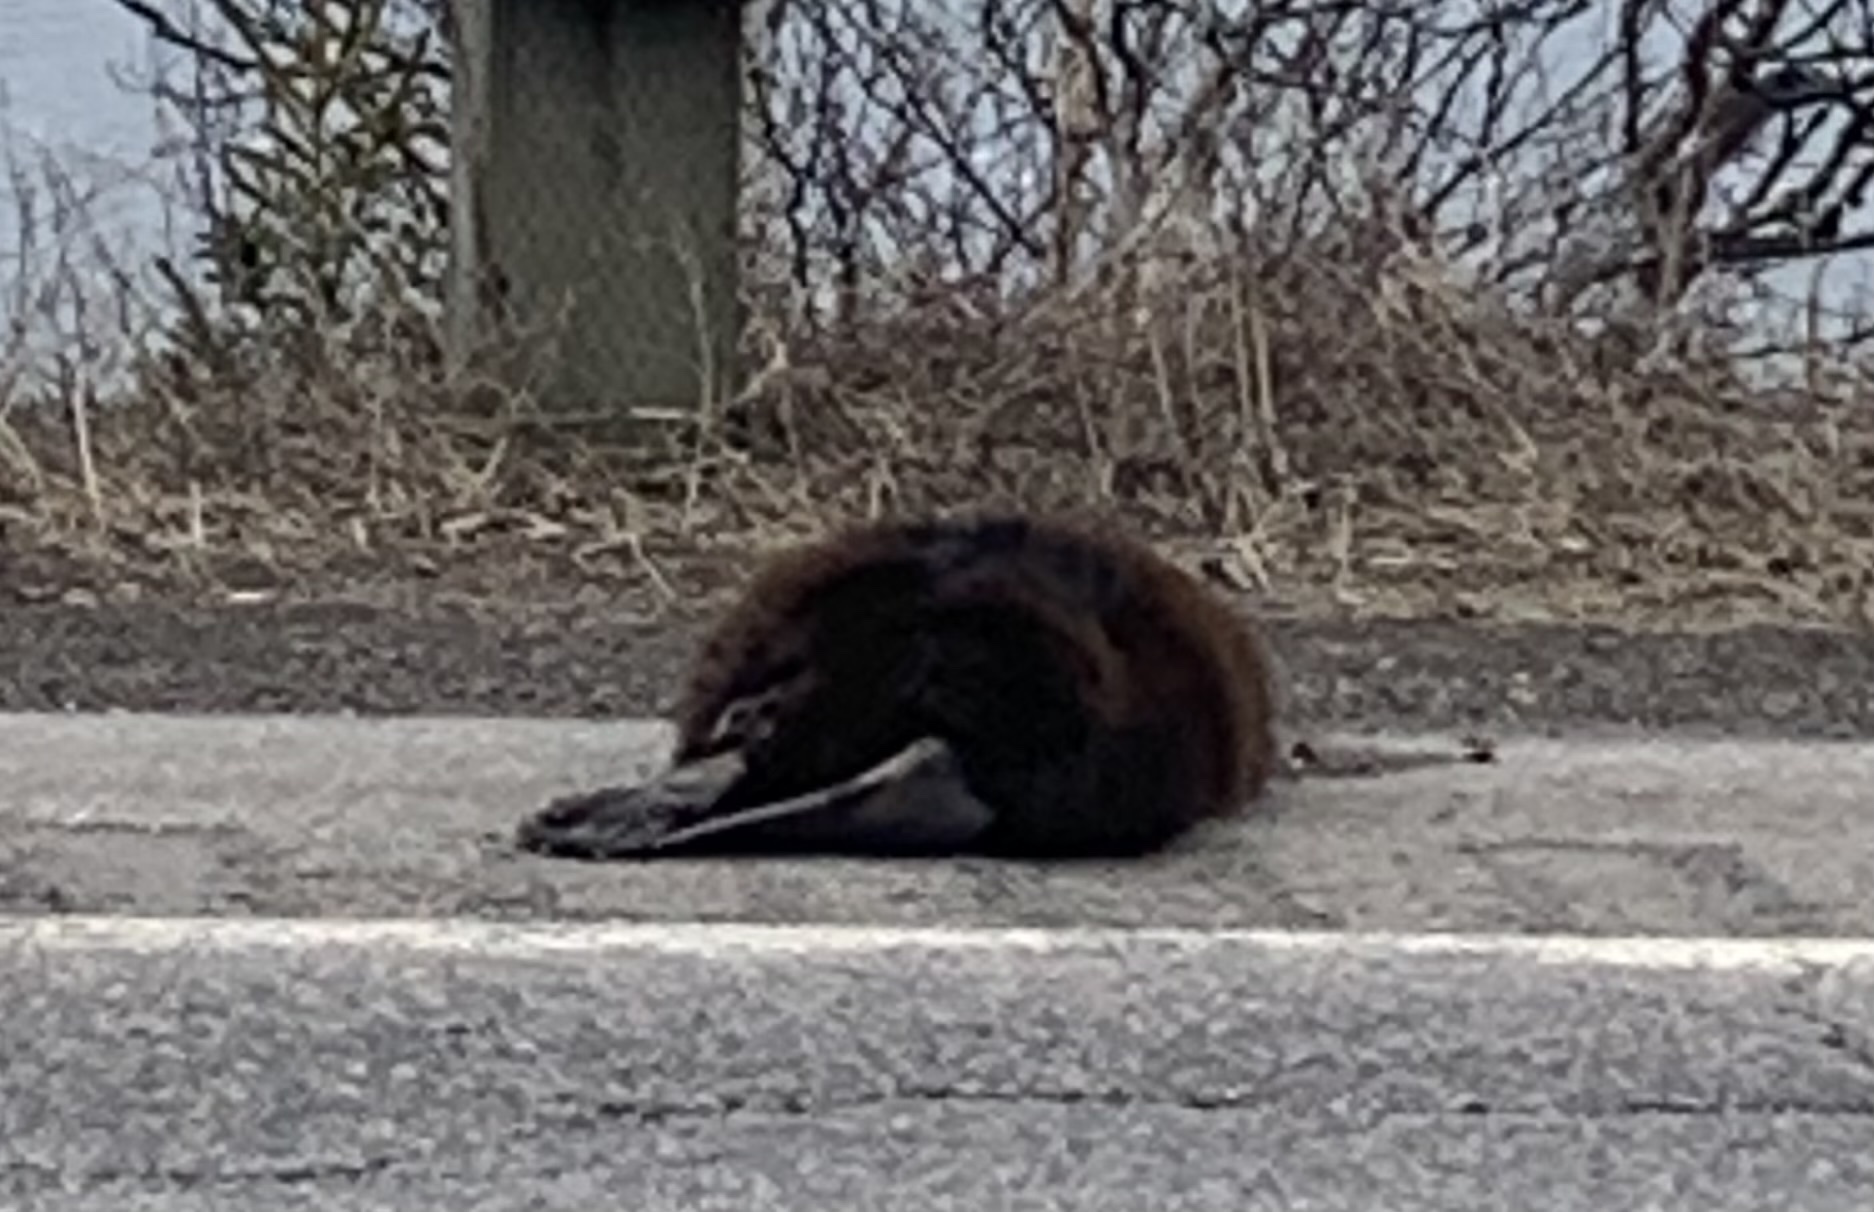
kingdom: Animalia
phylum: Chordata
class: Mammalia
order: Rodentia
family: Castoridae
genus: Castor
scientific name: Castor canadensis
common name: American beaver
